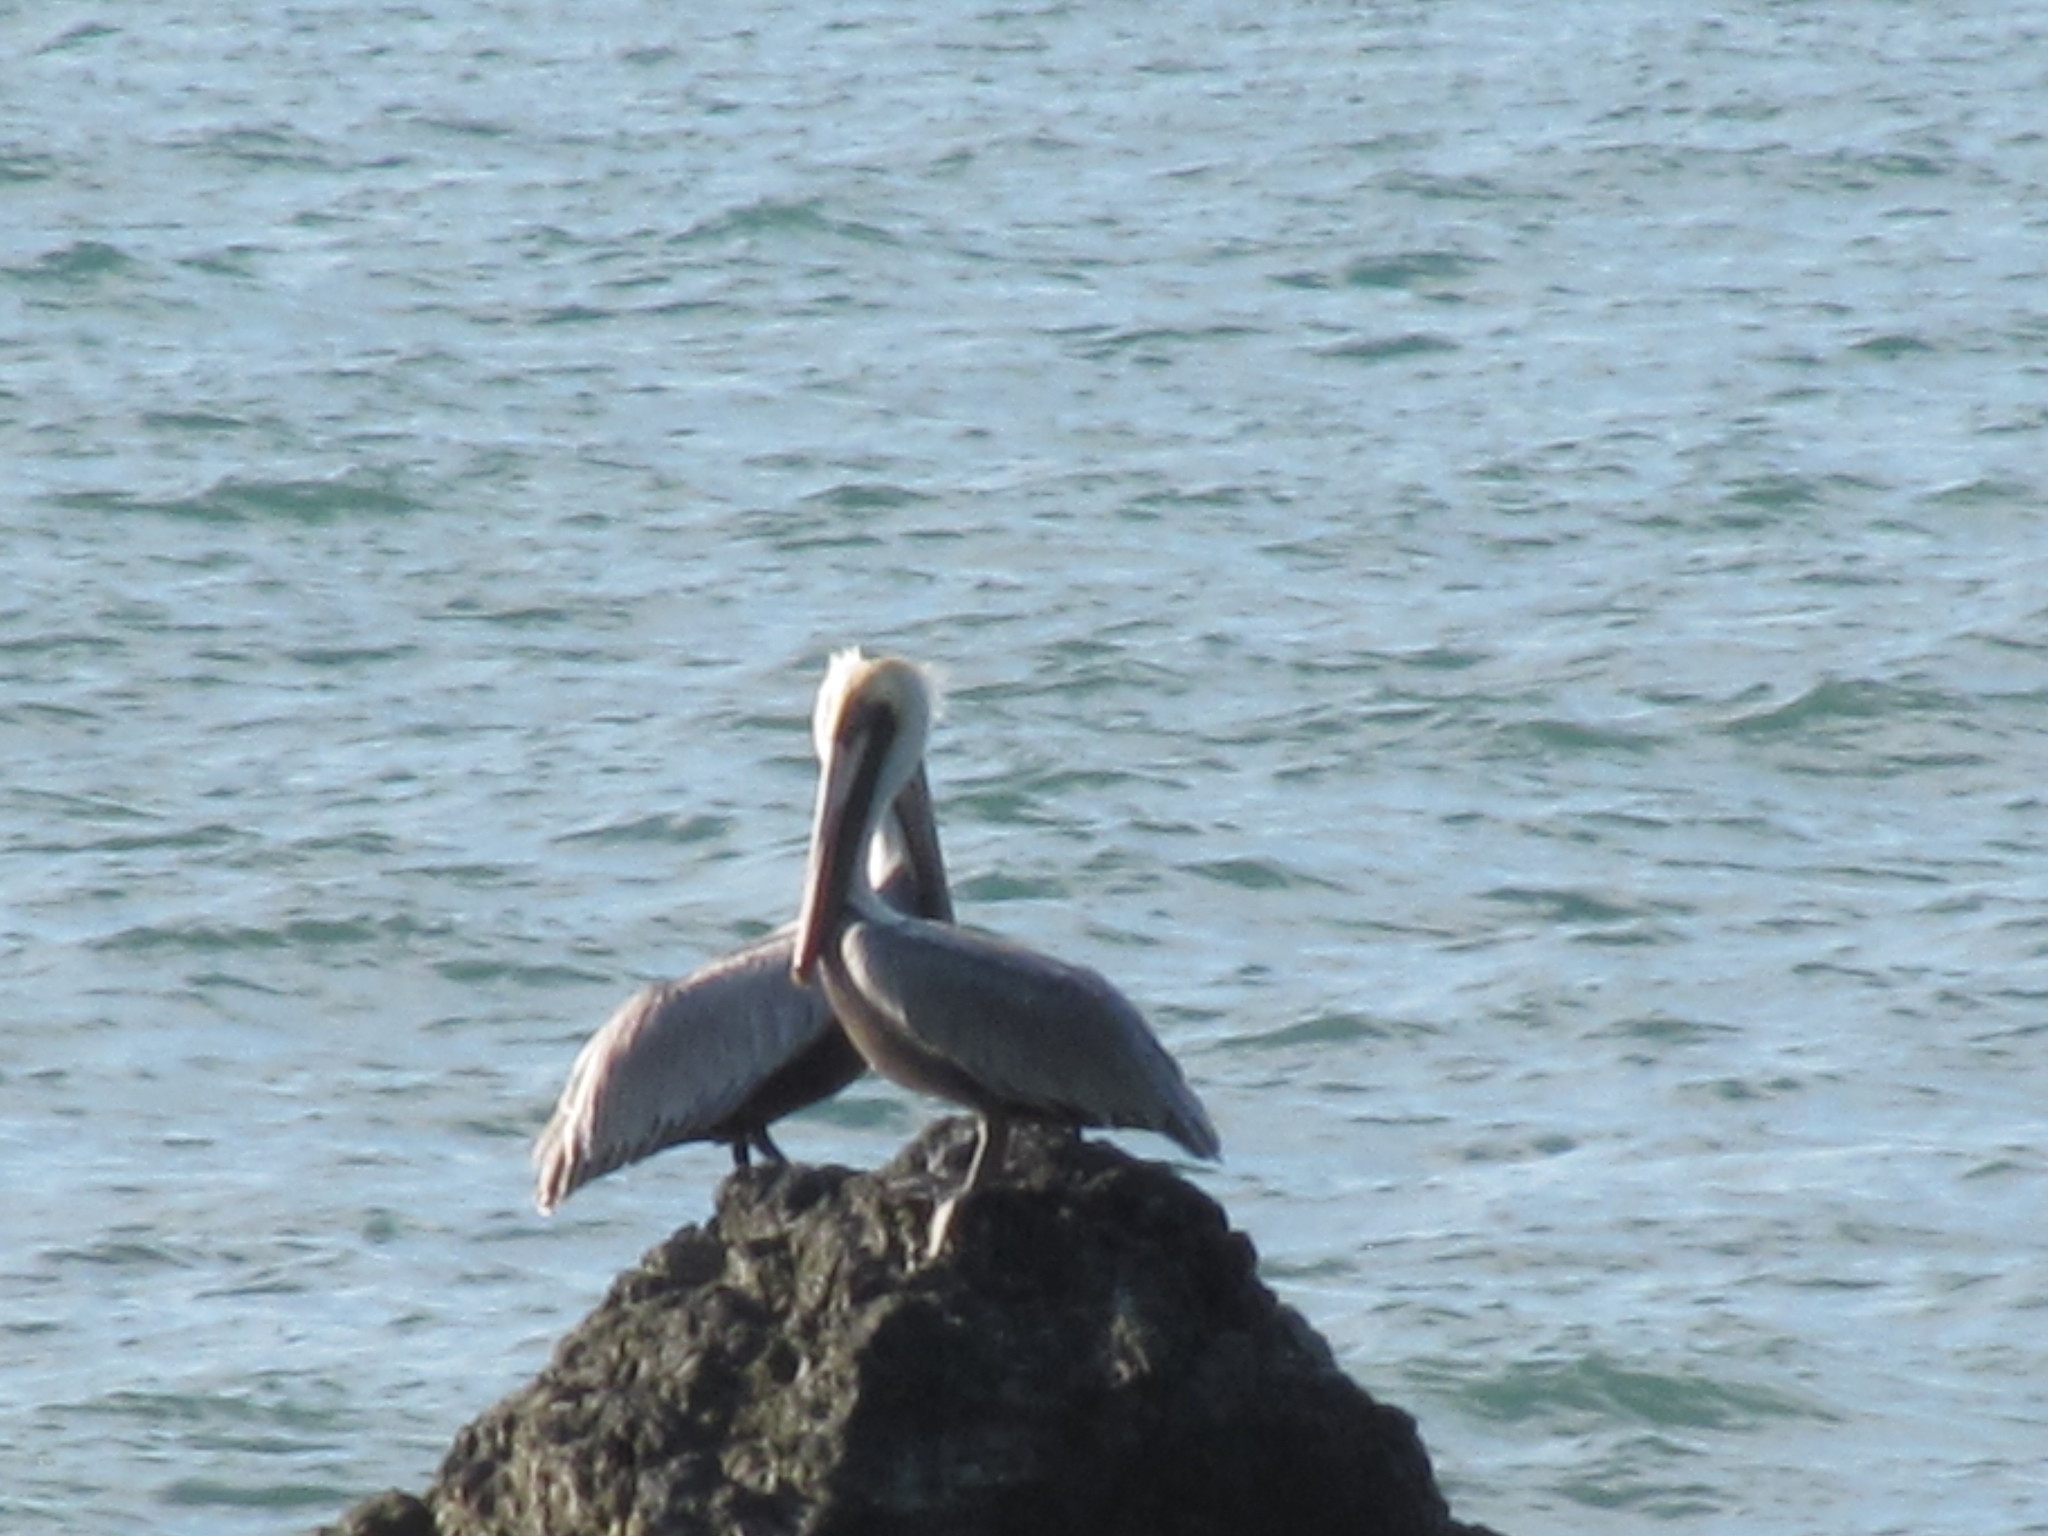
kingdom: Animalia
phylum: Chordata
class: Aves
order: Pelecaniformes
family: Pelecanidae
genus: Pelecanus
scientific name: Pelecanus occidentalis
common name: Brown pelican
